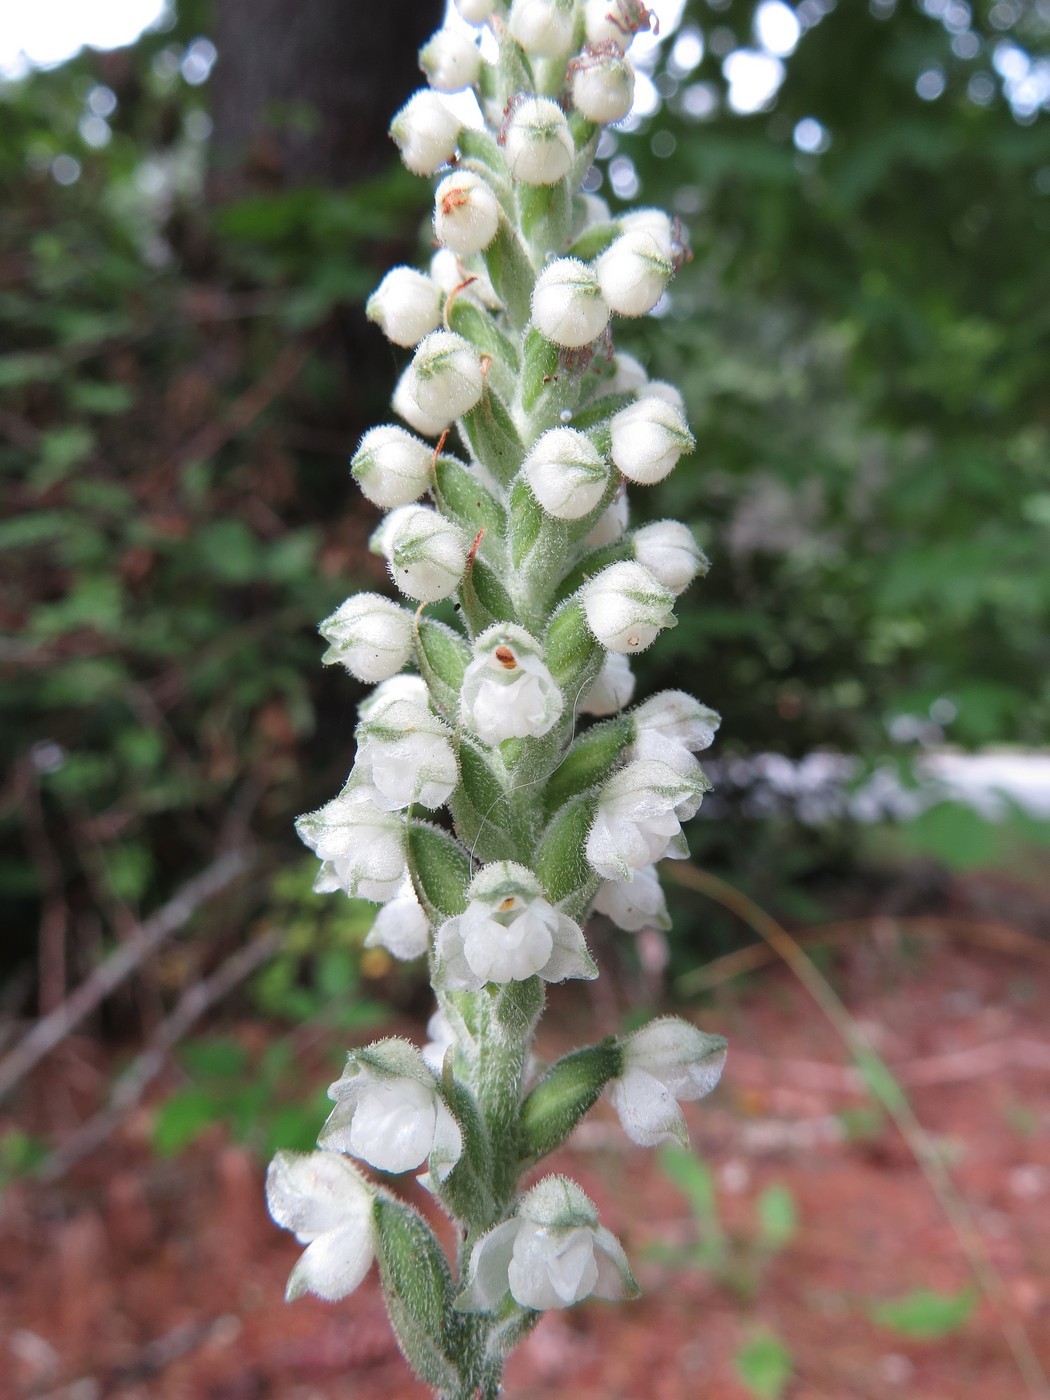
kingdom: Plantae
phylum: Tracheophyta
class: Liliopsida
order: Asparagales
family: Orchidaceae
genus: Goodyera
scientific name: Goodyera pubescens
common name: Downy rattlesnake-plantain
